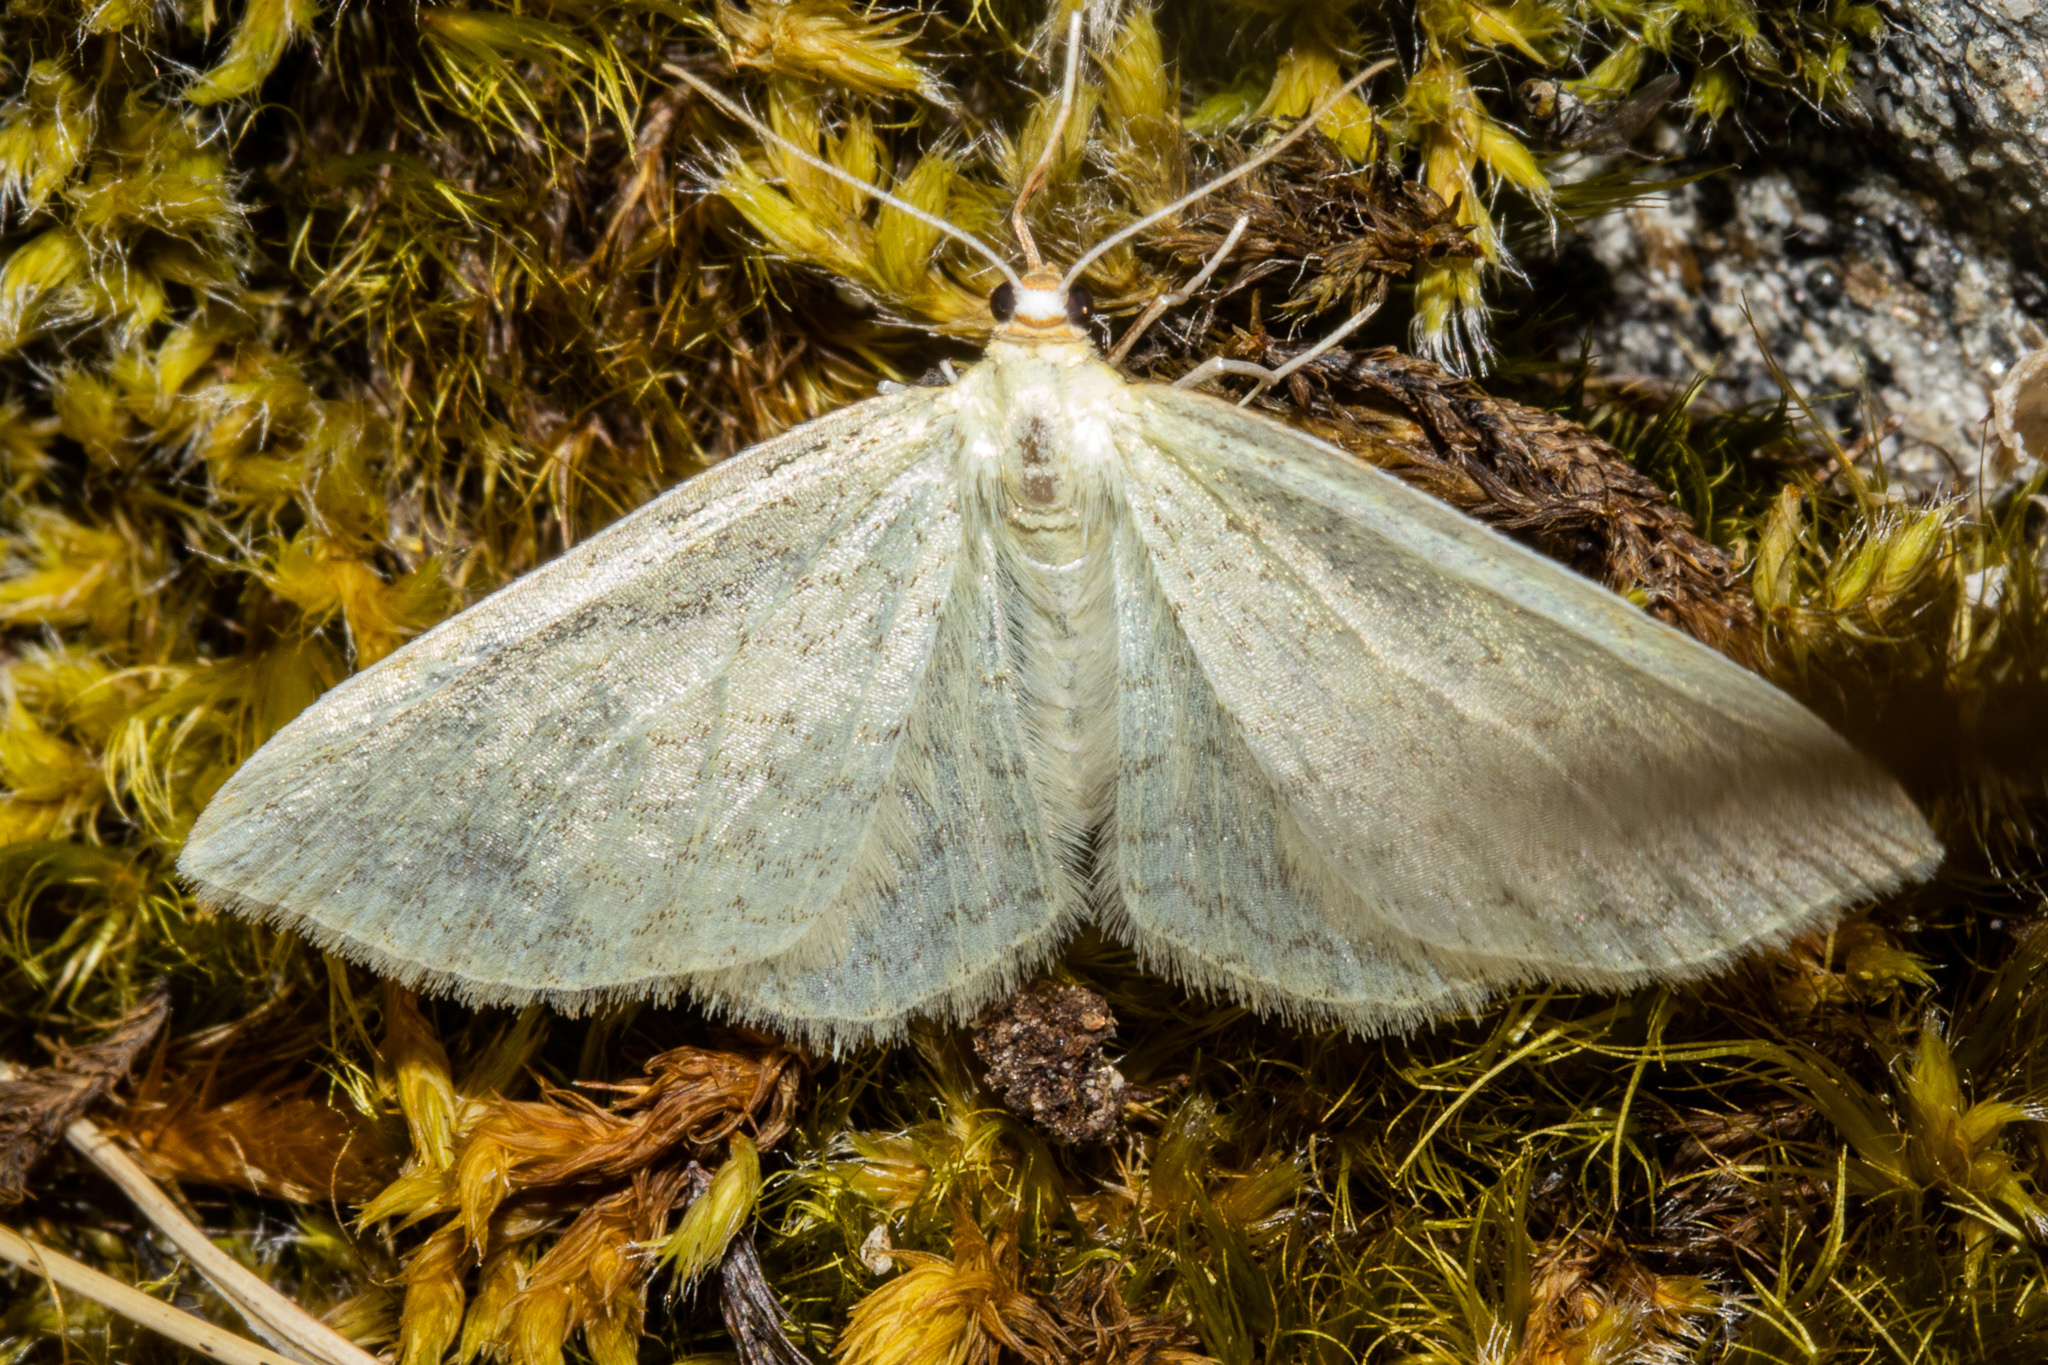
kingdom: Animalia
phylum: Arthropoda
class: Insecta
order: Lepidoptera
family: Geometridae
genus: Epiphryne
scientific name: Epiphryne undosata
